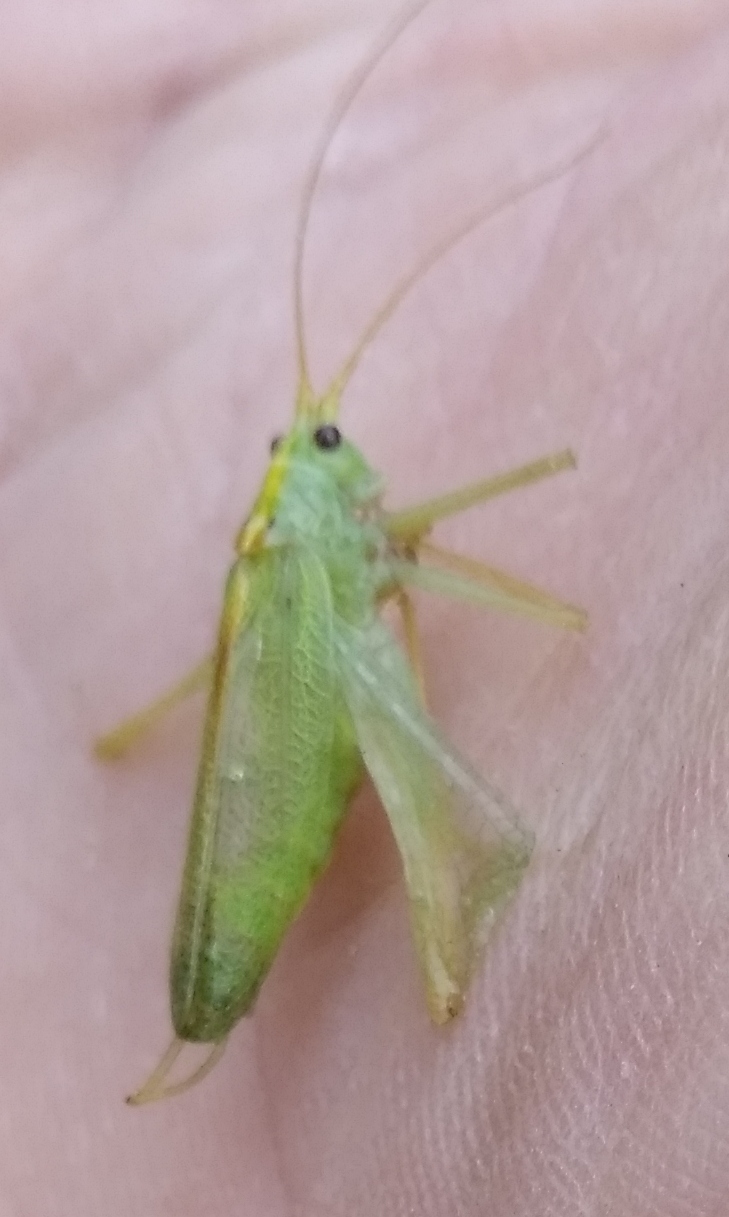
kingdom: Animalia
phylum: Arthropoda
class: Insecta
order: Orthoptera
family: Tettigoniidae
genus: Meconema
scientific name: Meconema thalassinum
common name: Oak bush-cricket
